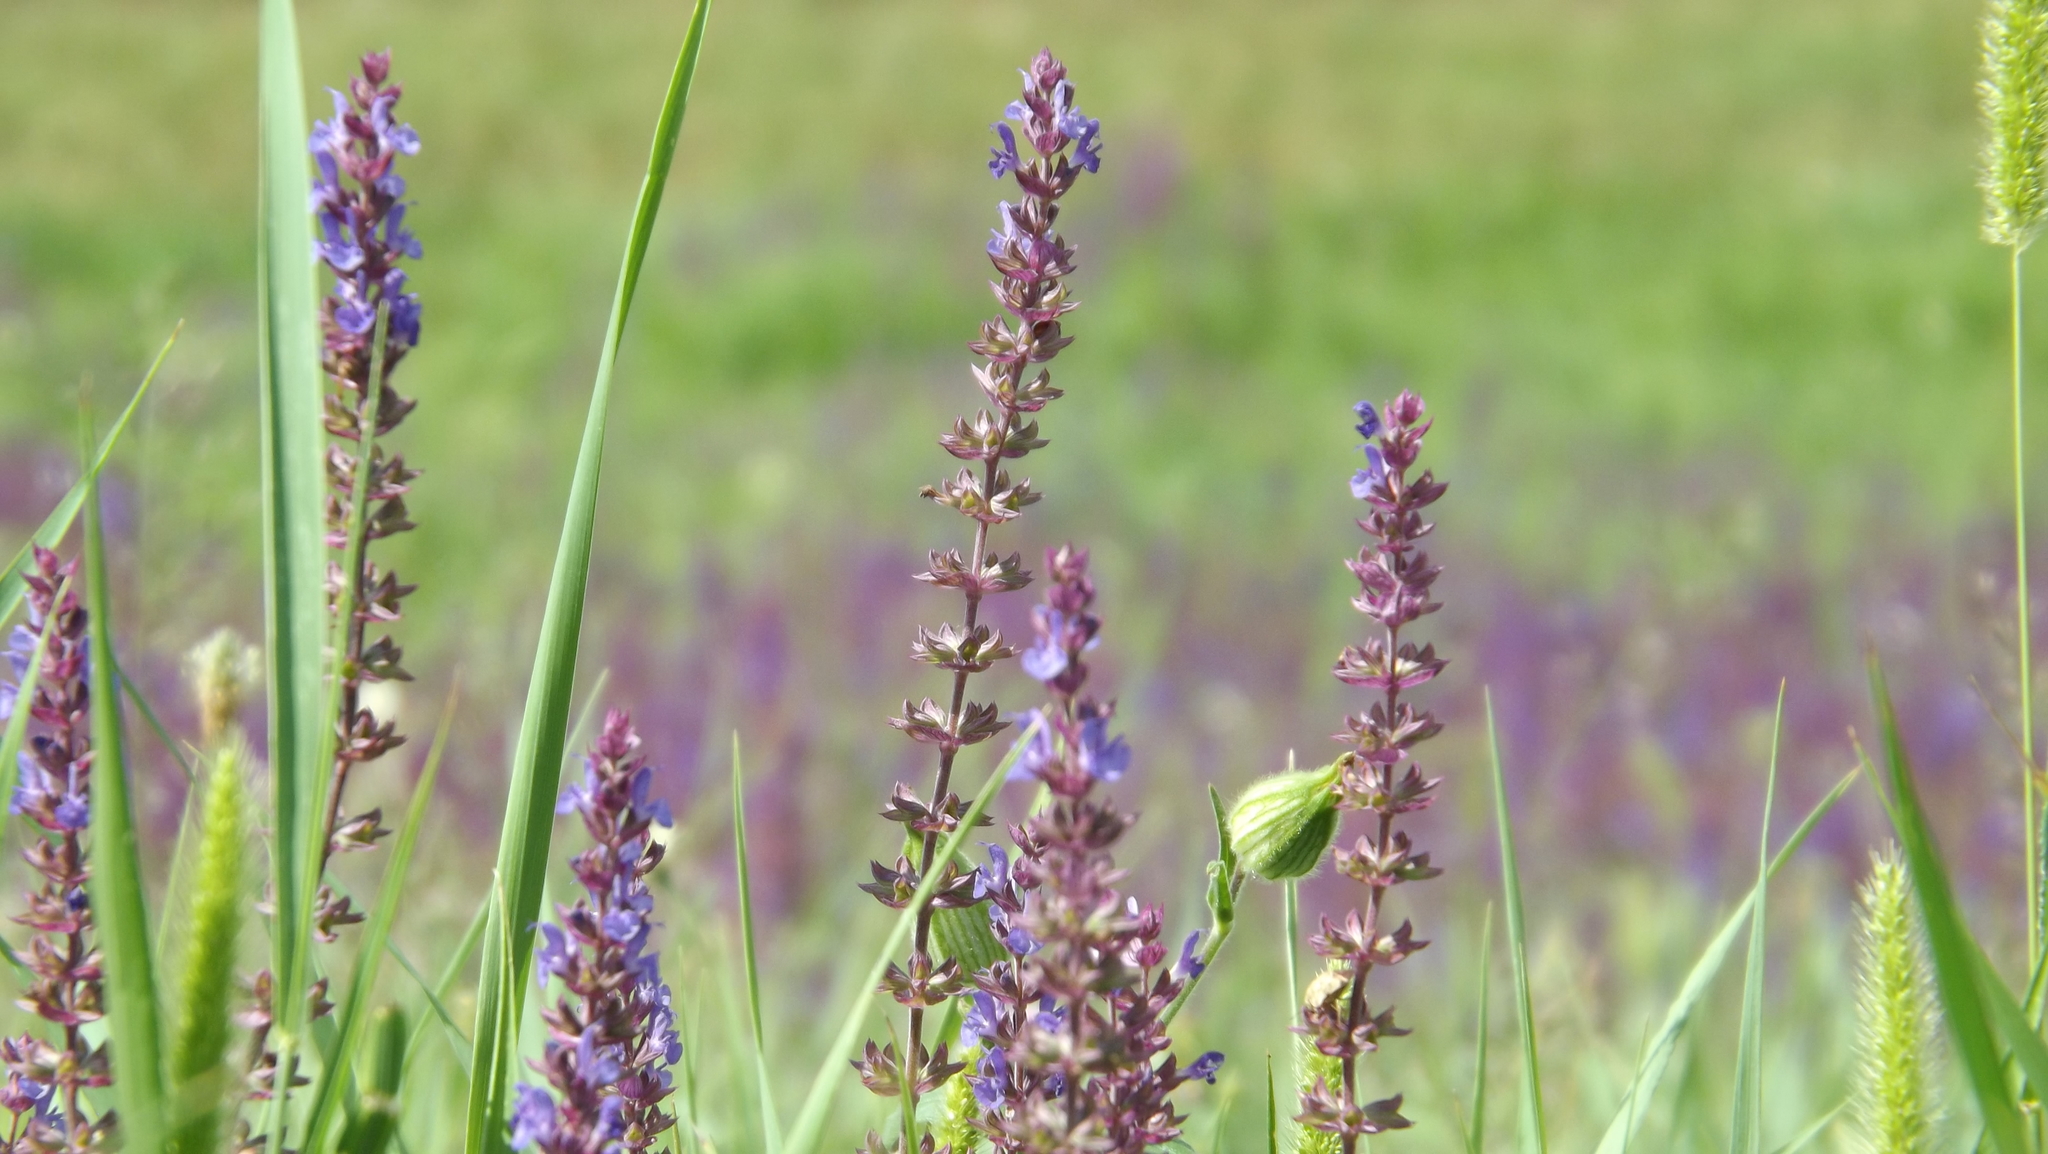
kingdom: Plantae
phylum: Tracheophyta
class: Magnoliopsida
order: Lamiales
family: Lamiaceae
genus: Salvia
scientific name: Salvia nemorosa
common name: Balkan clary
